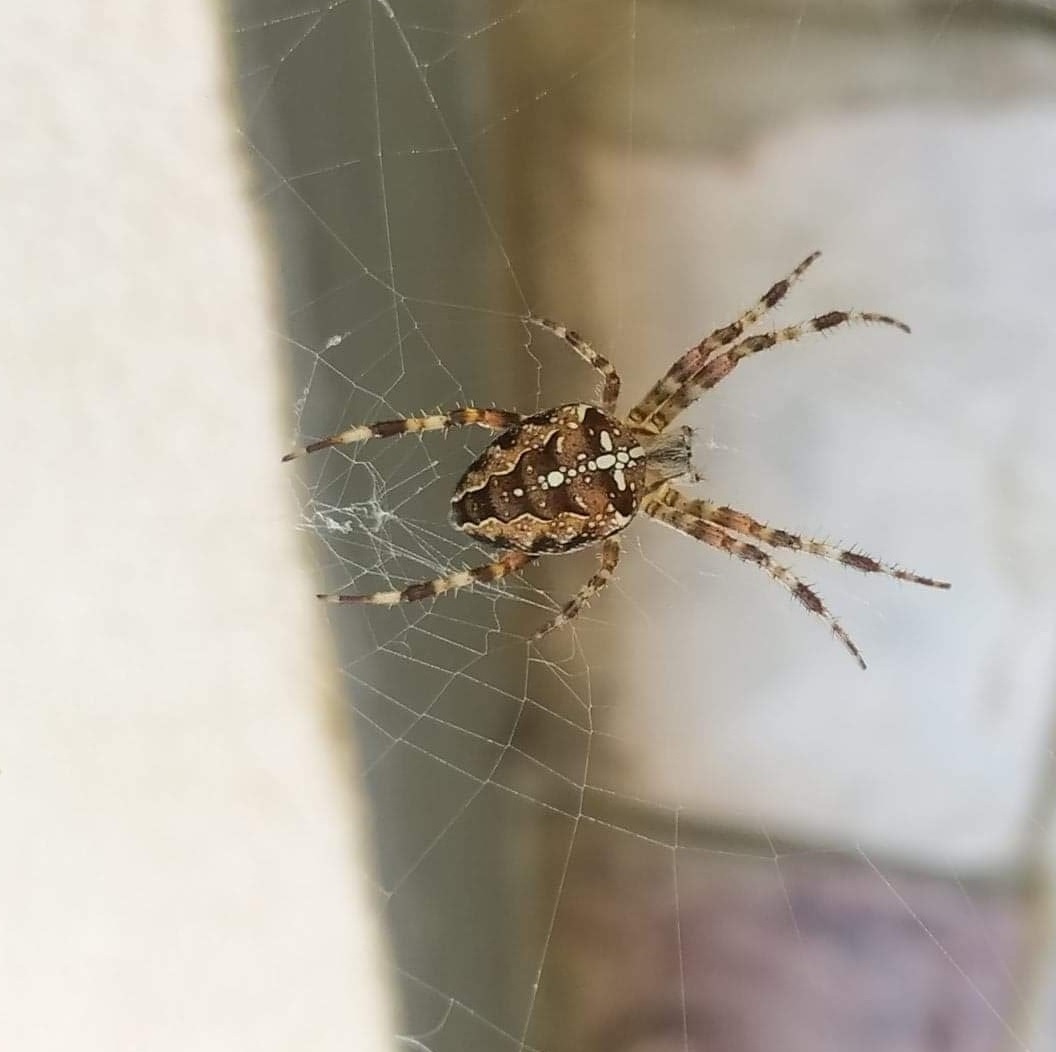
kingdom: Animalia
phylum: Arthropoda
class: Arachnida
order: Araneae
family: Araneidae
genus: Araneus
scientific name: Araneus diadematus
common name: Cross orbweaver
